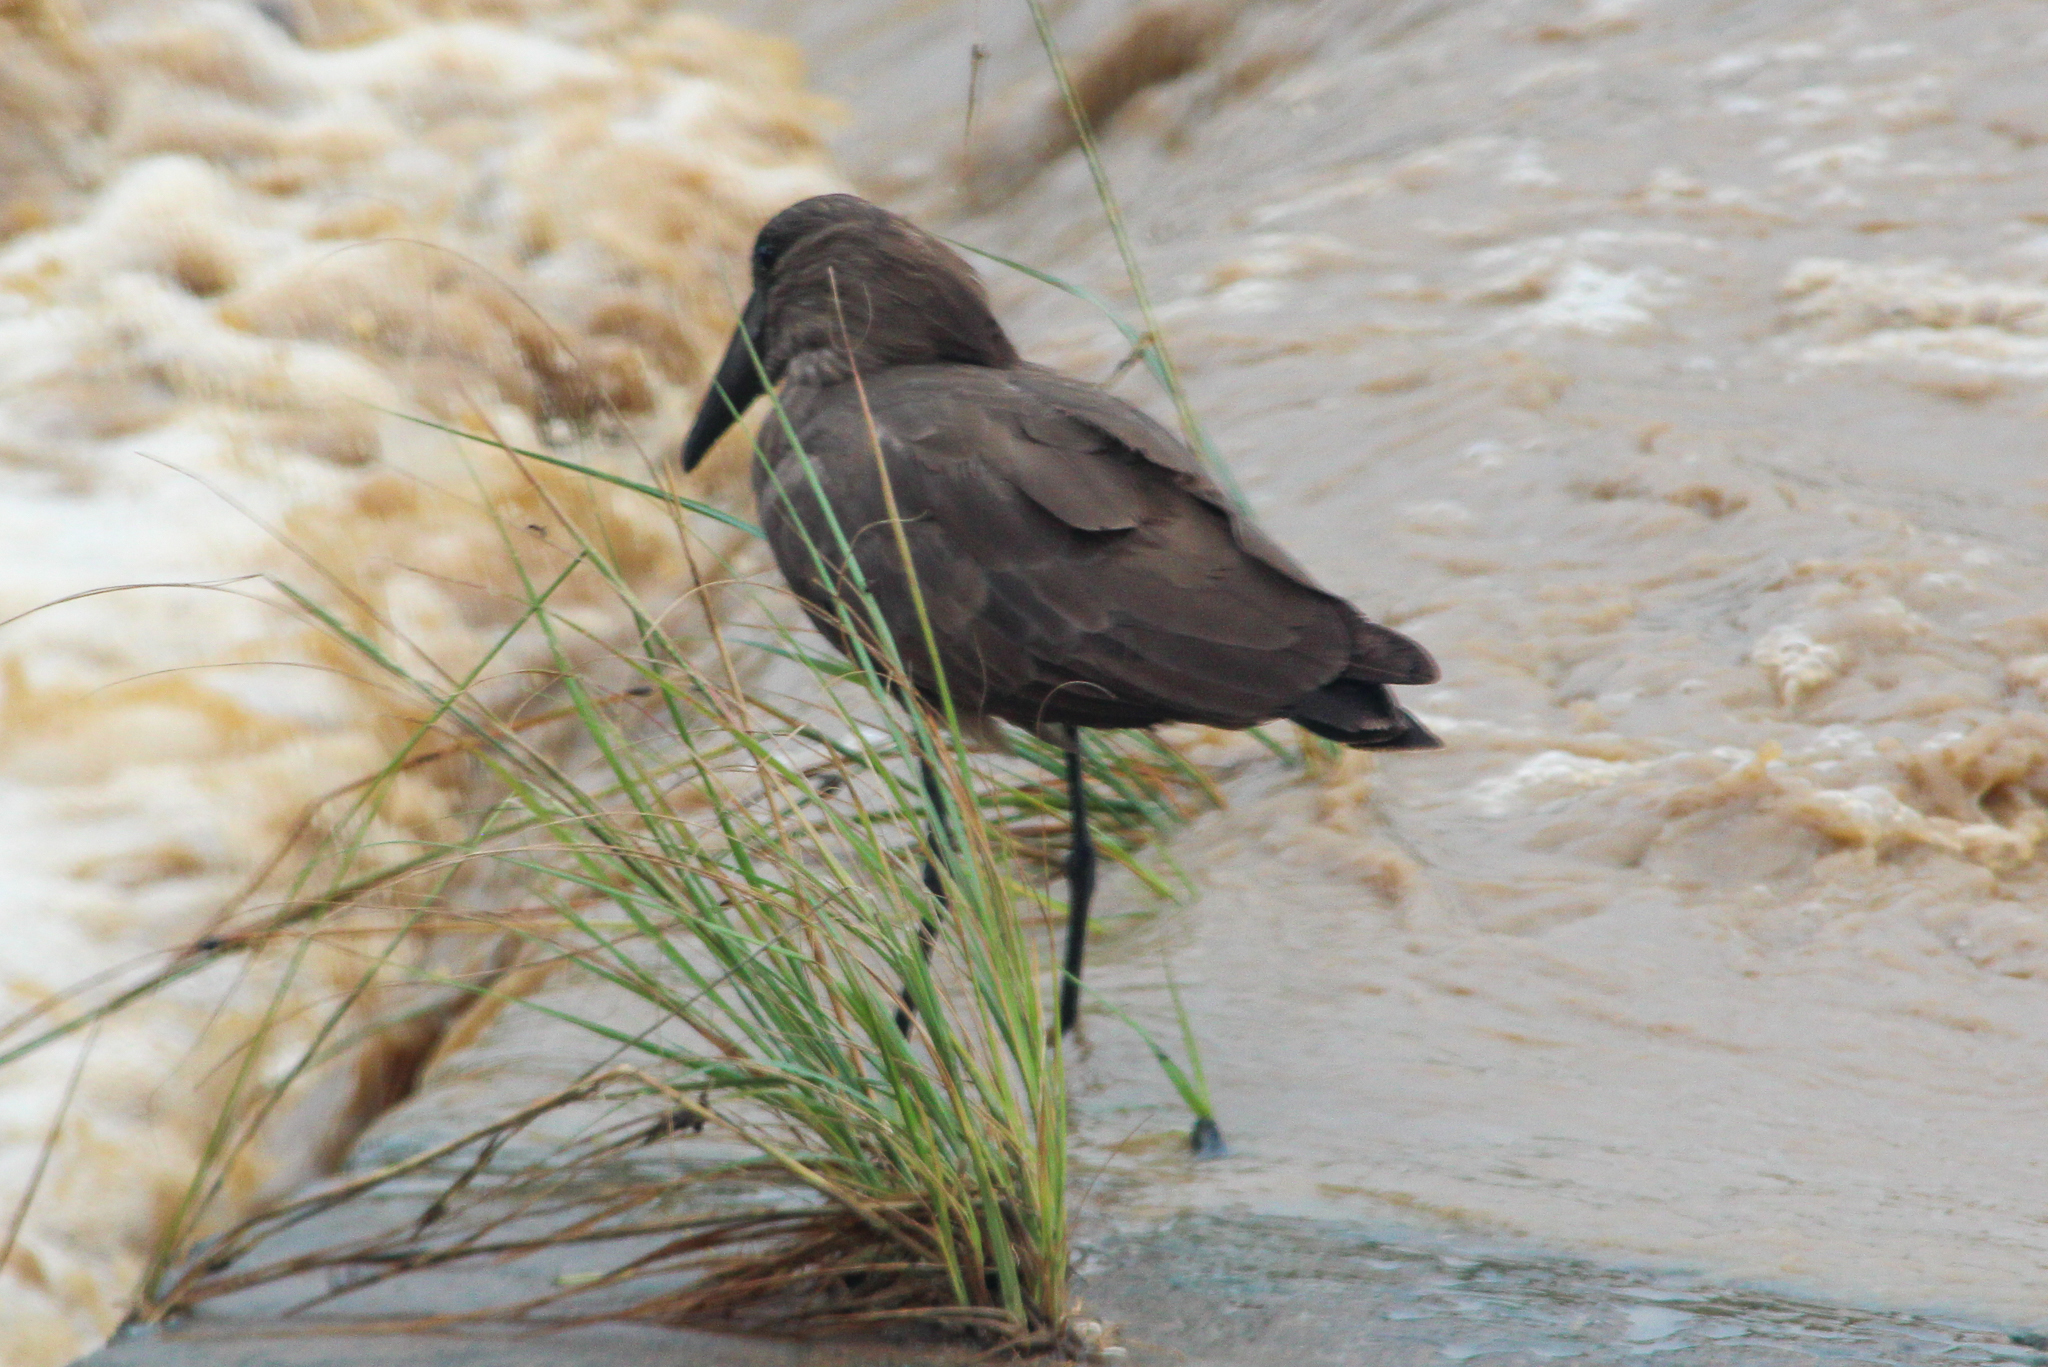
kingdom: Animalia
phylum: Chordata
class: Aves
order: Pelecaniformes
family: Scopidae
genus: Scopus
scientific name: Scopus umbretta
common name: Hamerkop
